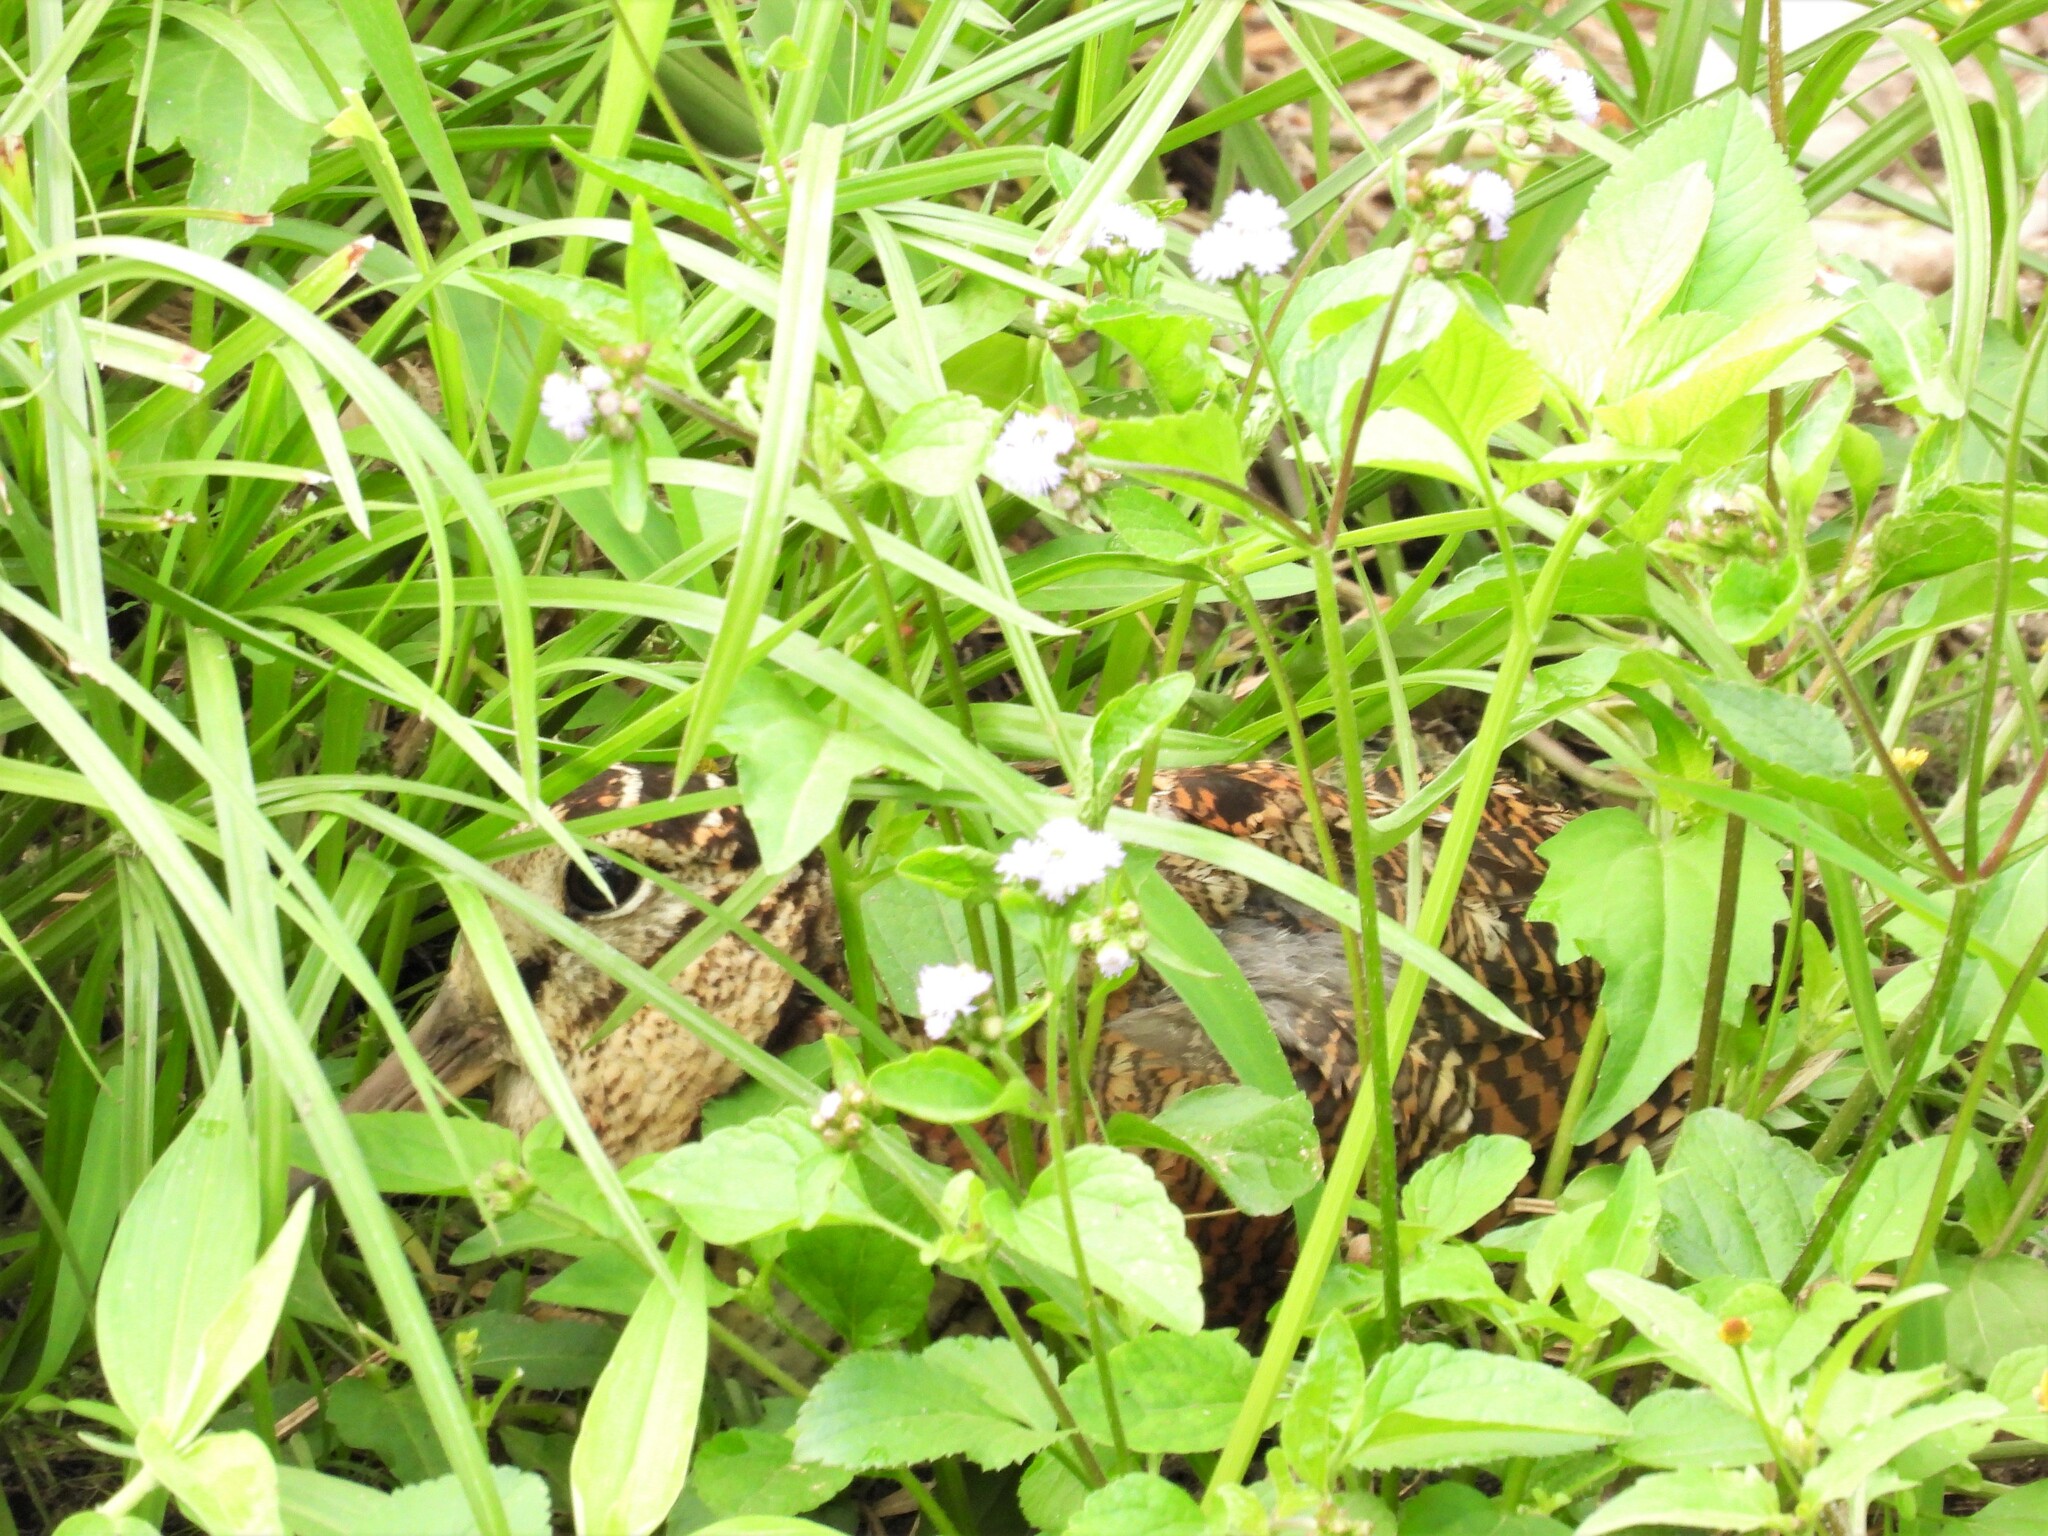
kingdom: Animalia
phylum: Chordata
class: Aves
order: Charadriiformes
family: Scolopacidae
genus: Scolopax
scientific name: Scolopax rusticola
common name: Eurasian woodcock
